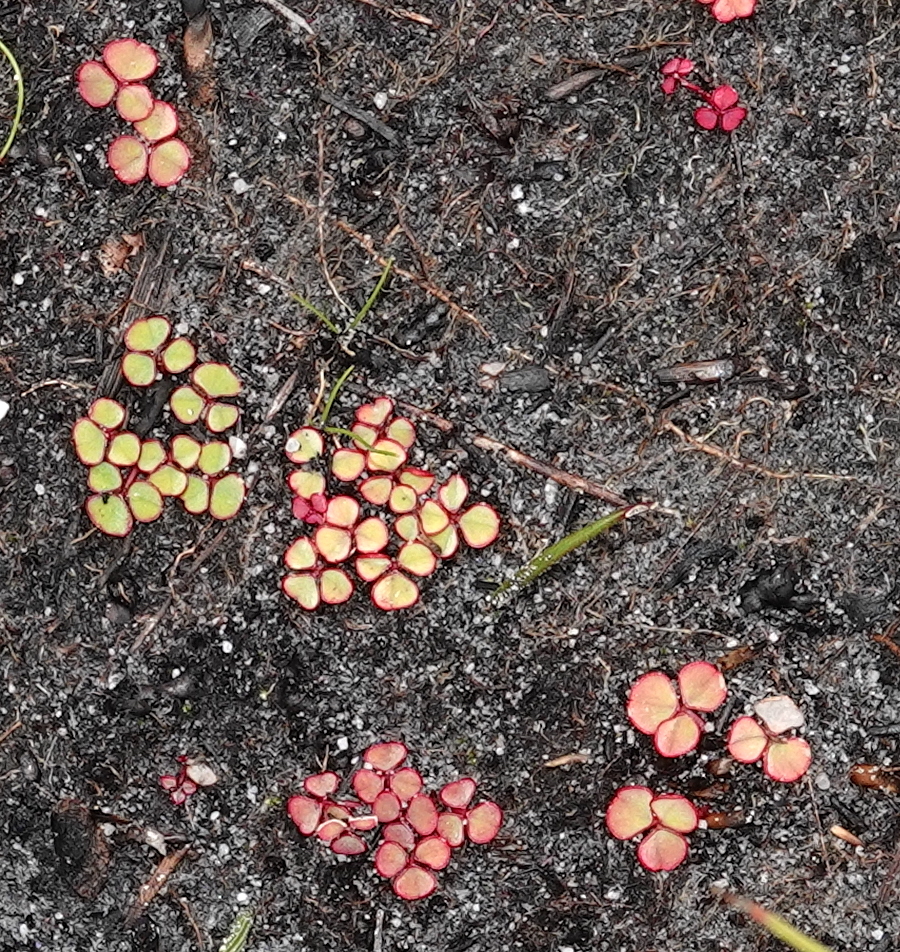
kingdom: Plantae
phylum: Tracheophyta
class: Magnoliopsida
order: Oxalidales
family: Oxalidaceae
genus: Oxalis
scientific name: Oxalis commutata
